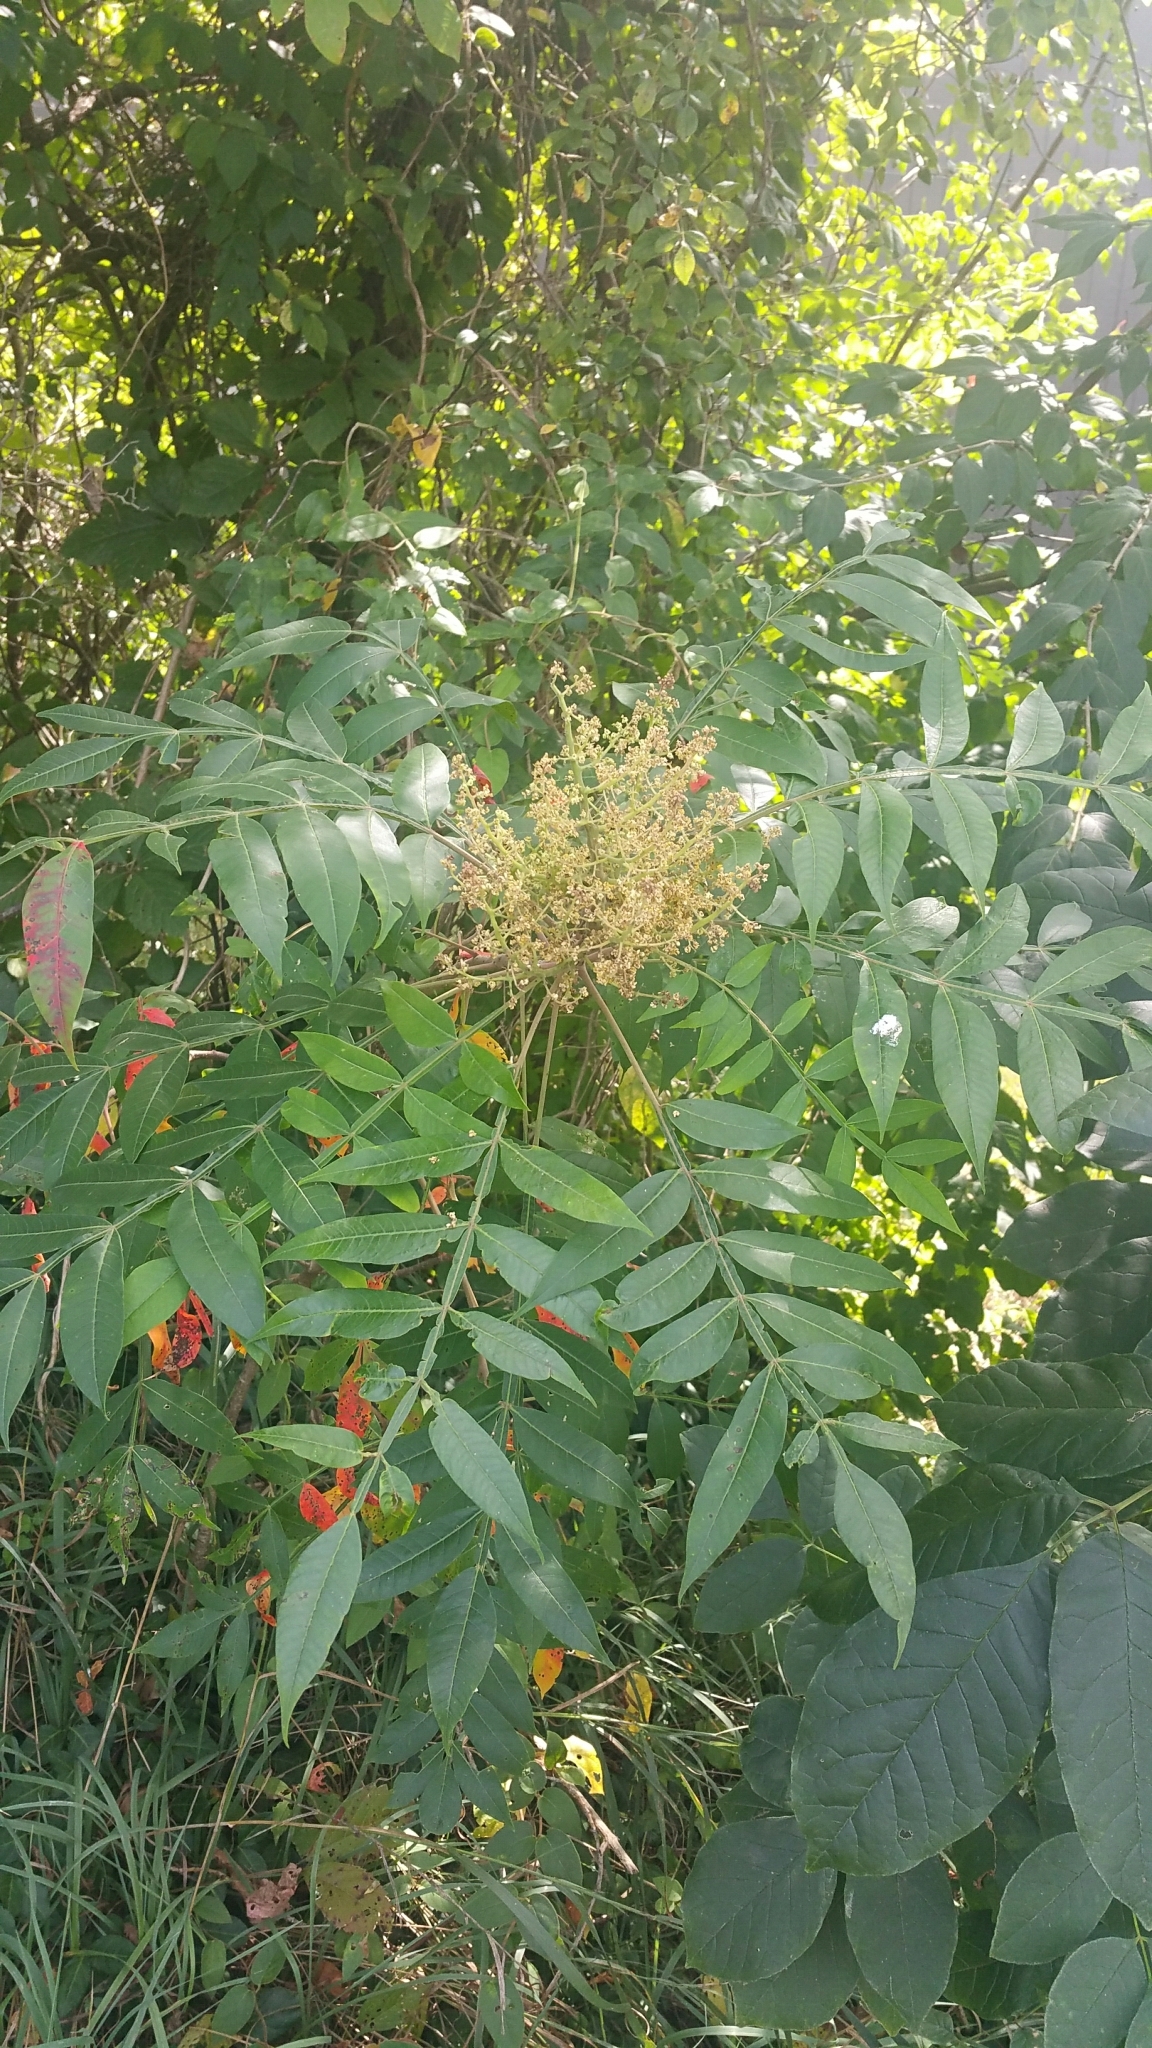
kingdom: Plantae
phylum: Tracheophyta
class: Magnoliopsida
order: Sapindales
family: Anacardiaceae
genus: Rhus
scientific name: Rhus copallina
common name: Shining sumac
